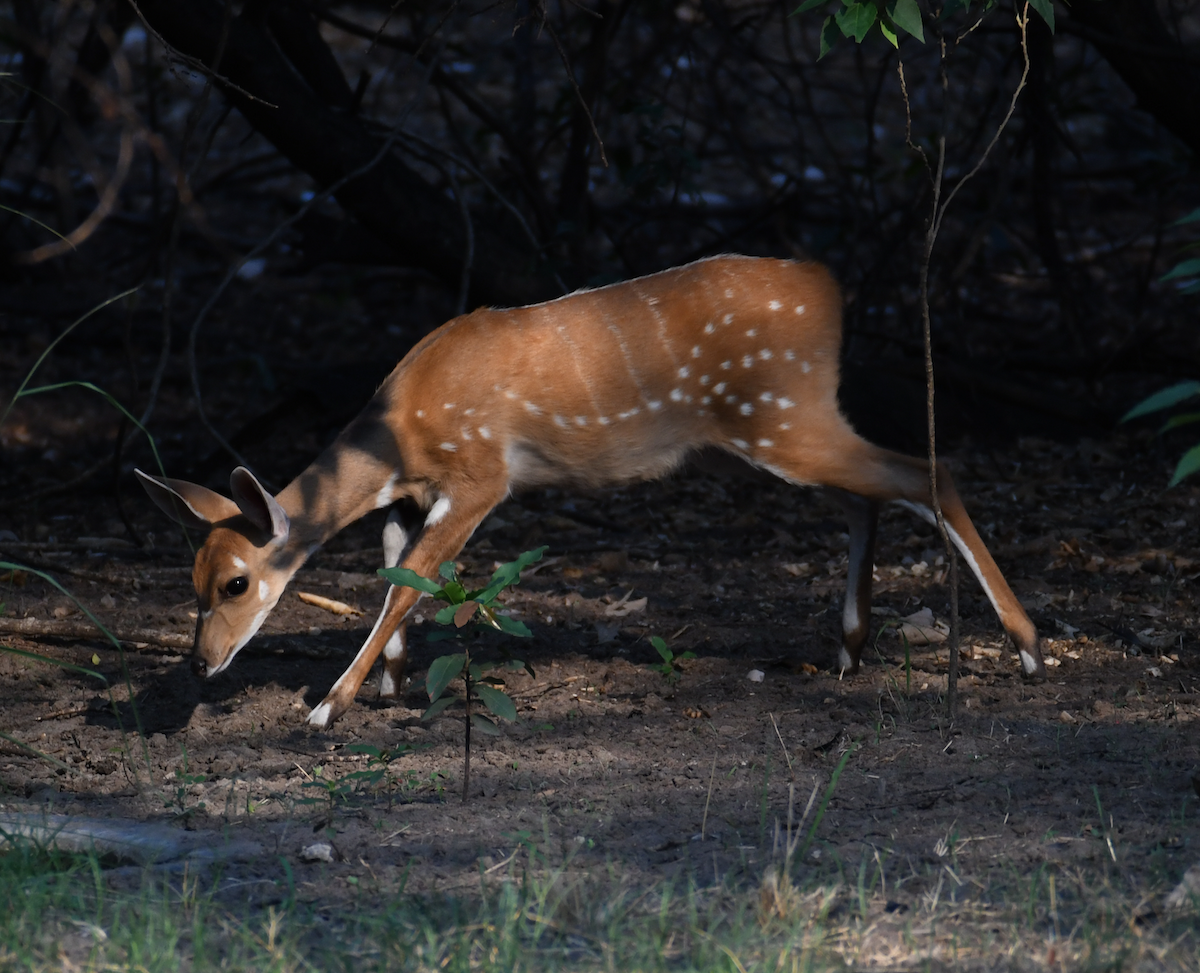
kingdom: Animalia
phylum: Chordata
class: Mammalia
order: Artiodactyla
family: Bovidae
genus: Tragelaphus
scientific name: Tragelaphus scriptus
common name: Bushbuck
